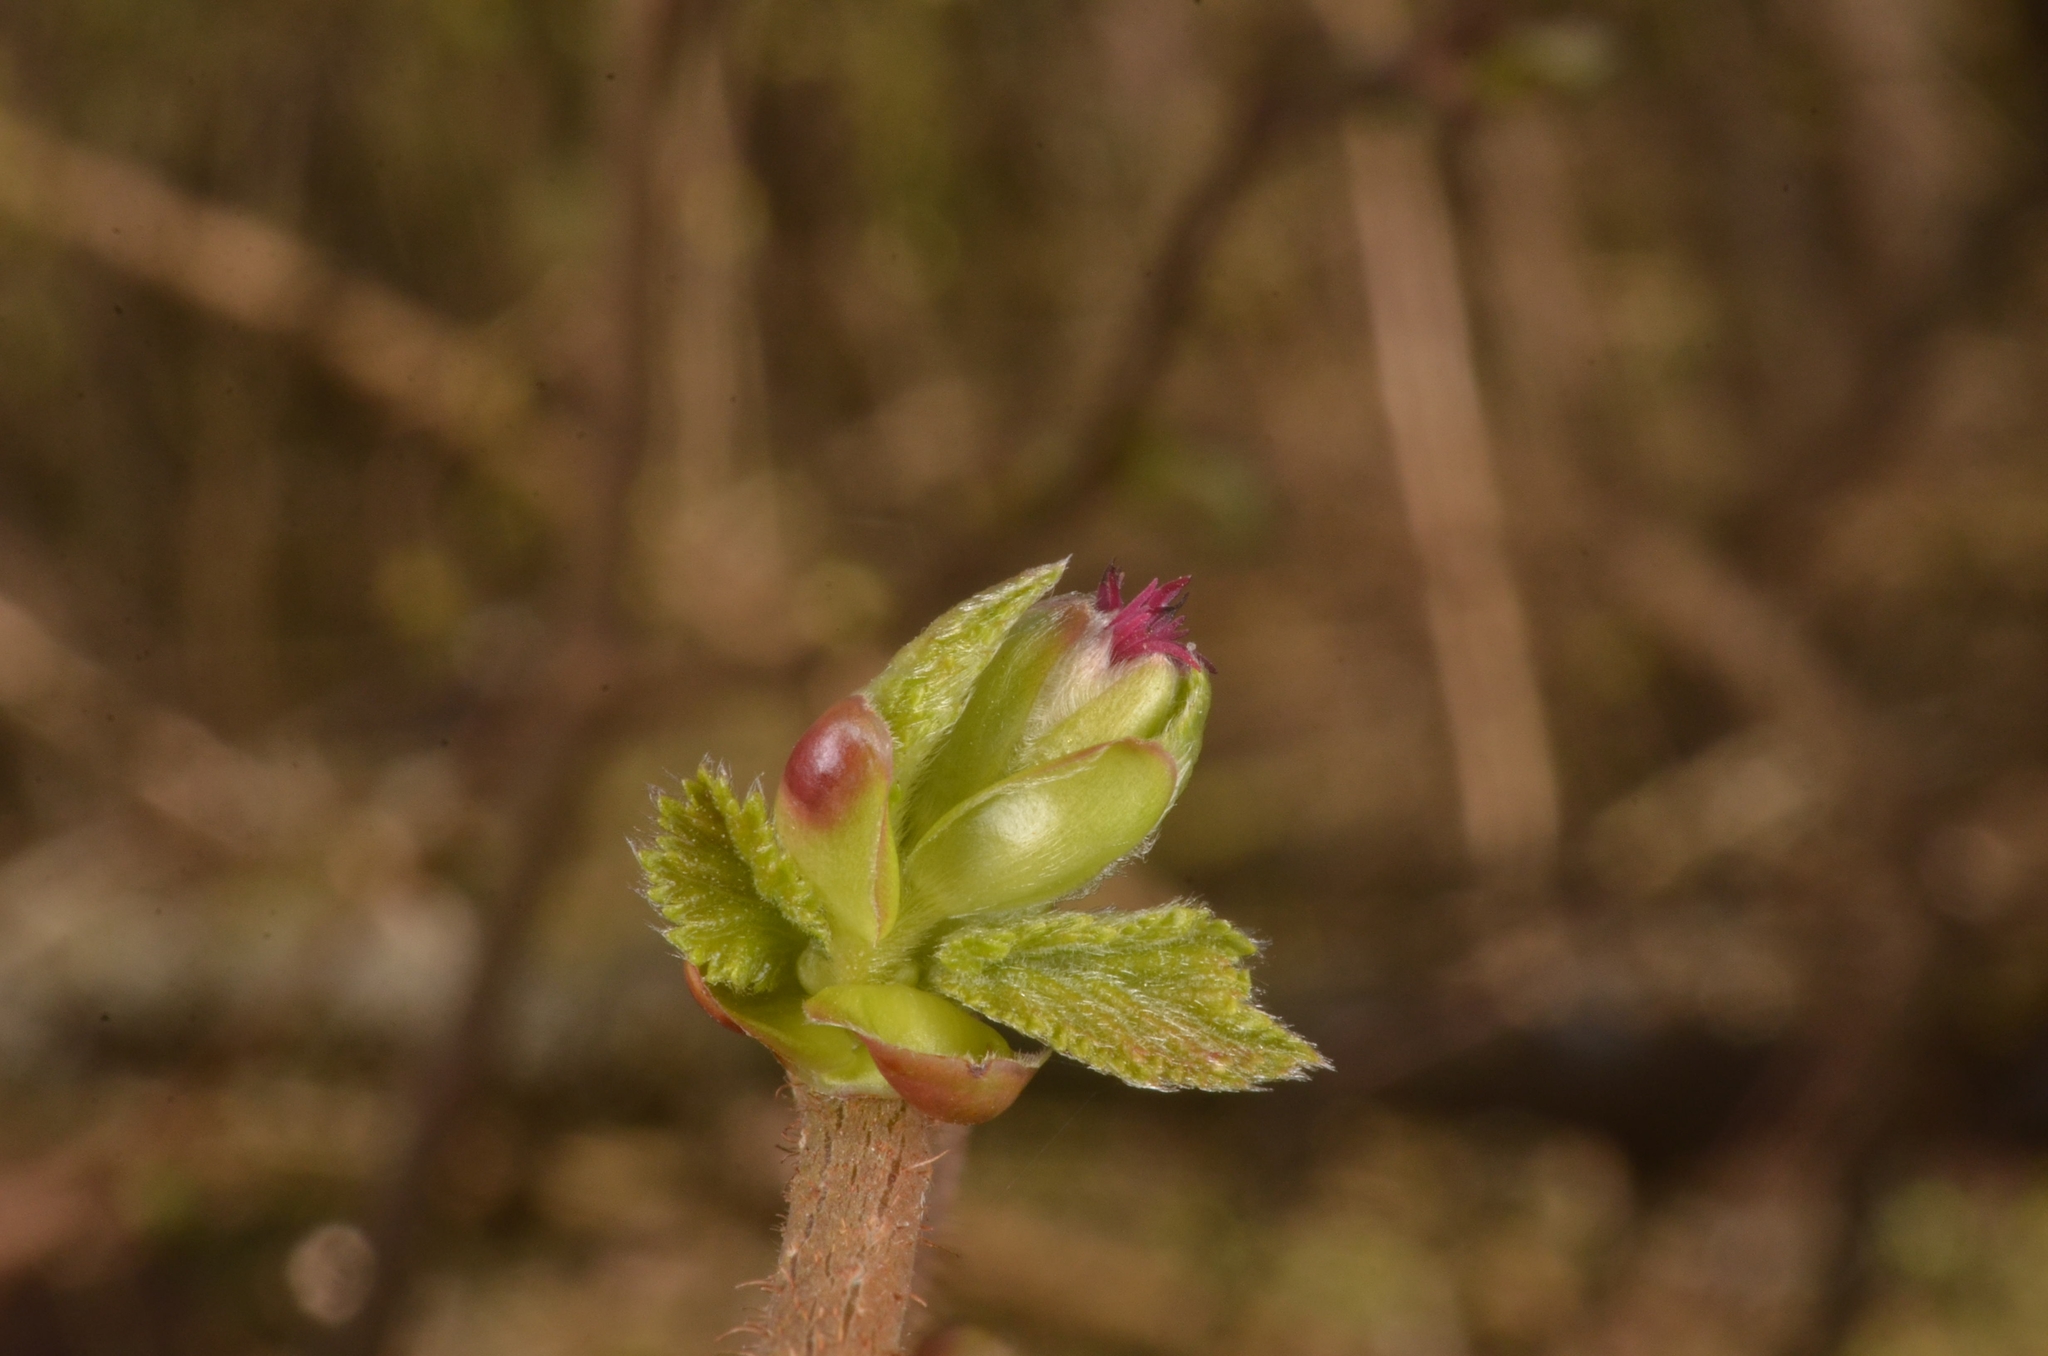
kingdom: Plantae
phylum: Tracheophyta
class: Magnoliopsida
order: Fagales
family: Betulaceae
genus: Corylus
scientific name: Corylus avellana
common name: European hazel
